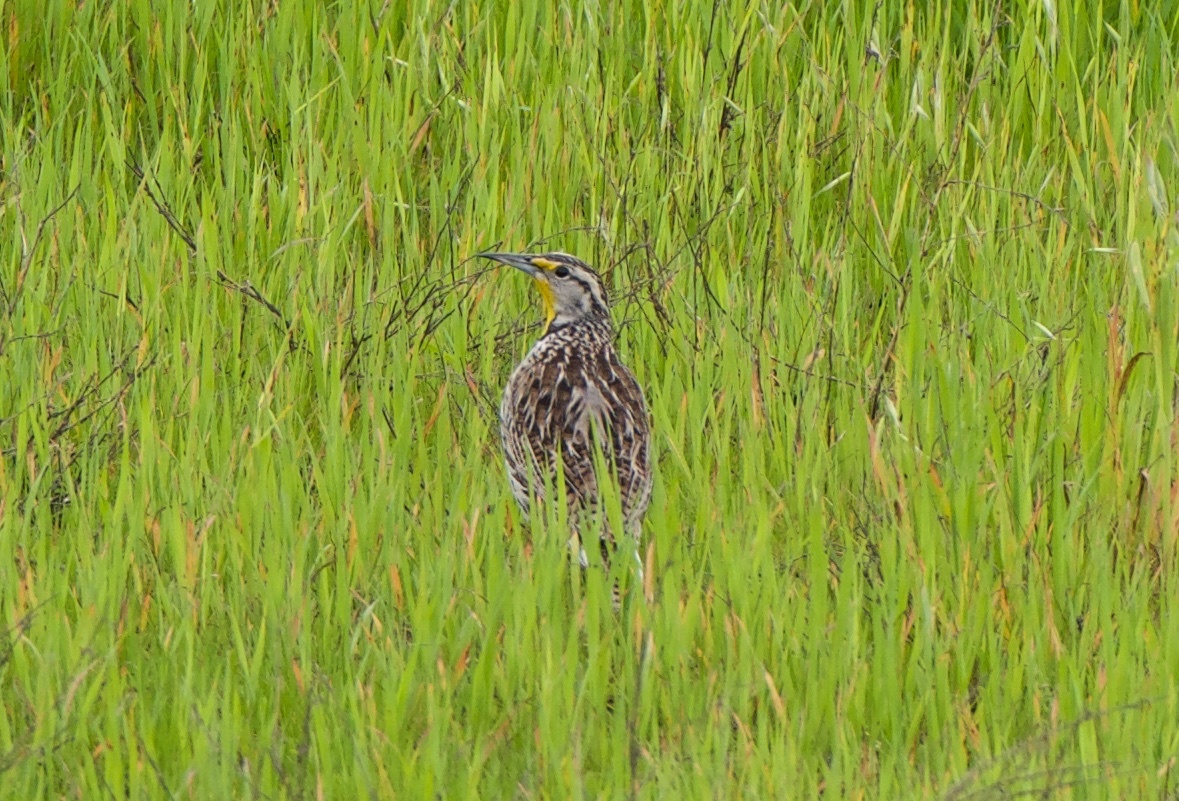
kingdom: Animalia
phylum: Chordata
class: Aves
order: Passeriformes
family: Icteridae
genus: Sturnella
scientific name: Sturnella neglecta
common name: Western meadowlark
